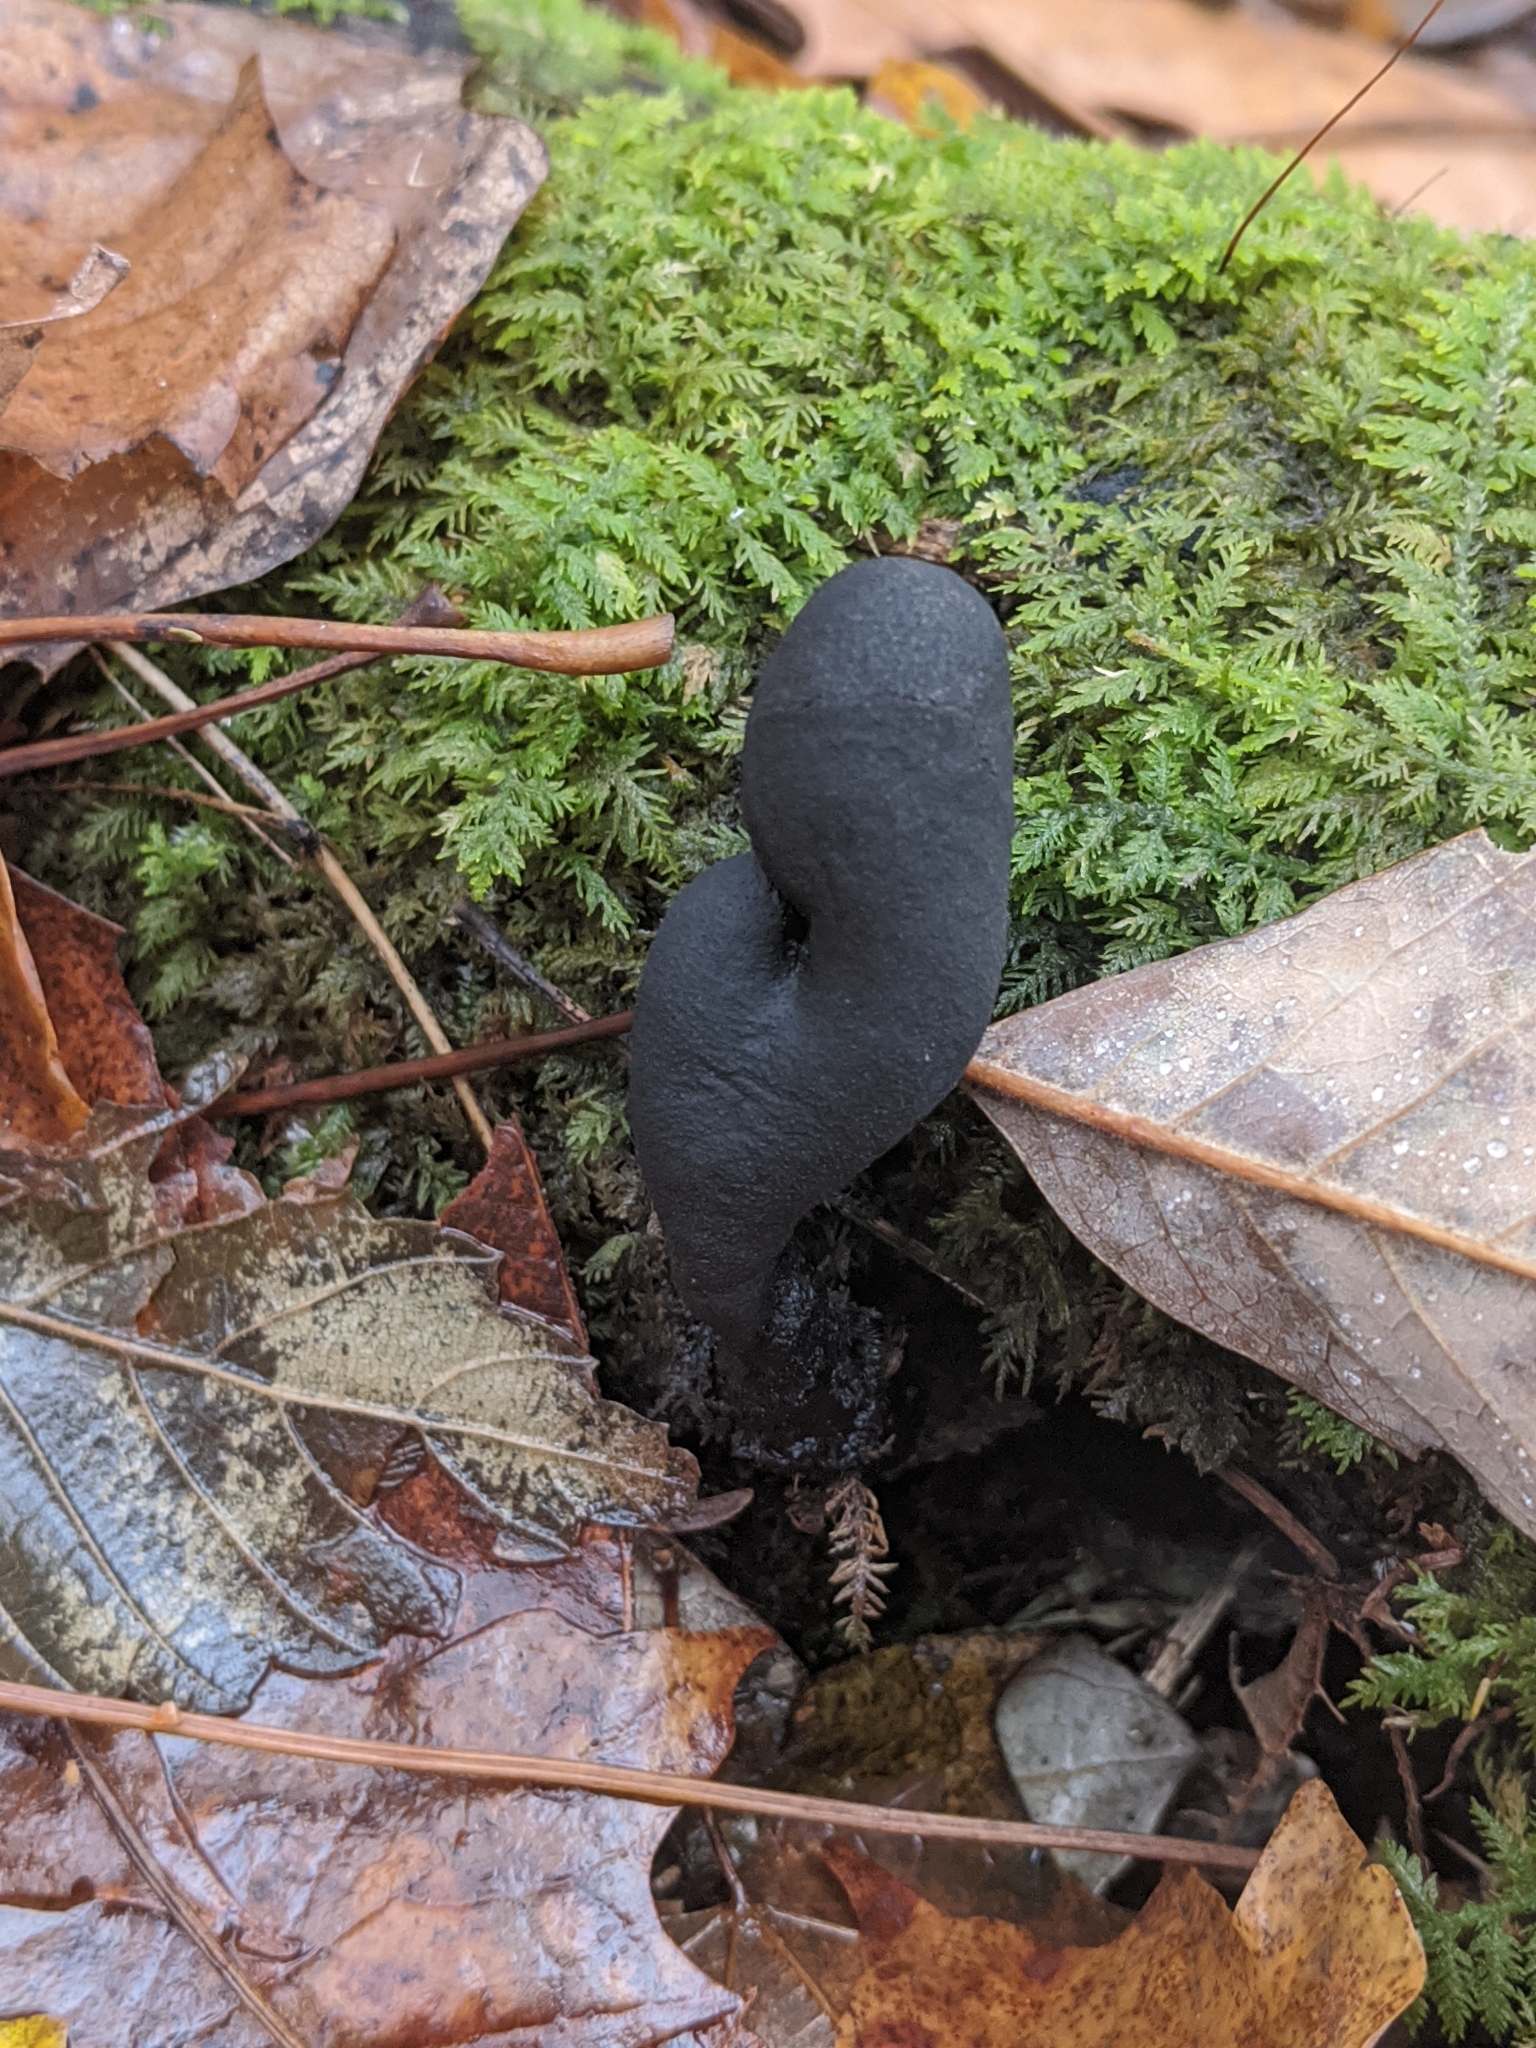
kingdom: Fungi
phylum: Ascomycota
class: Sordariomycetes
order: Xylariales
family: Xylariaceae
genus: Xylaria
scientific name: Xylaria polymorpha
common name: Dead man's fingers
